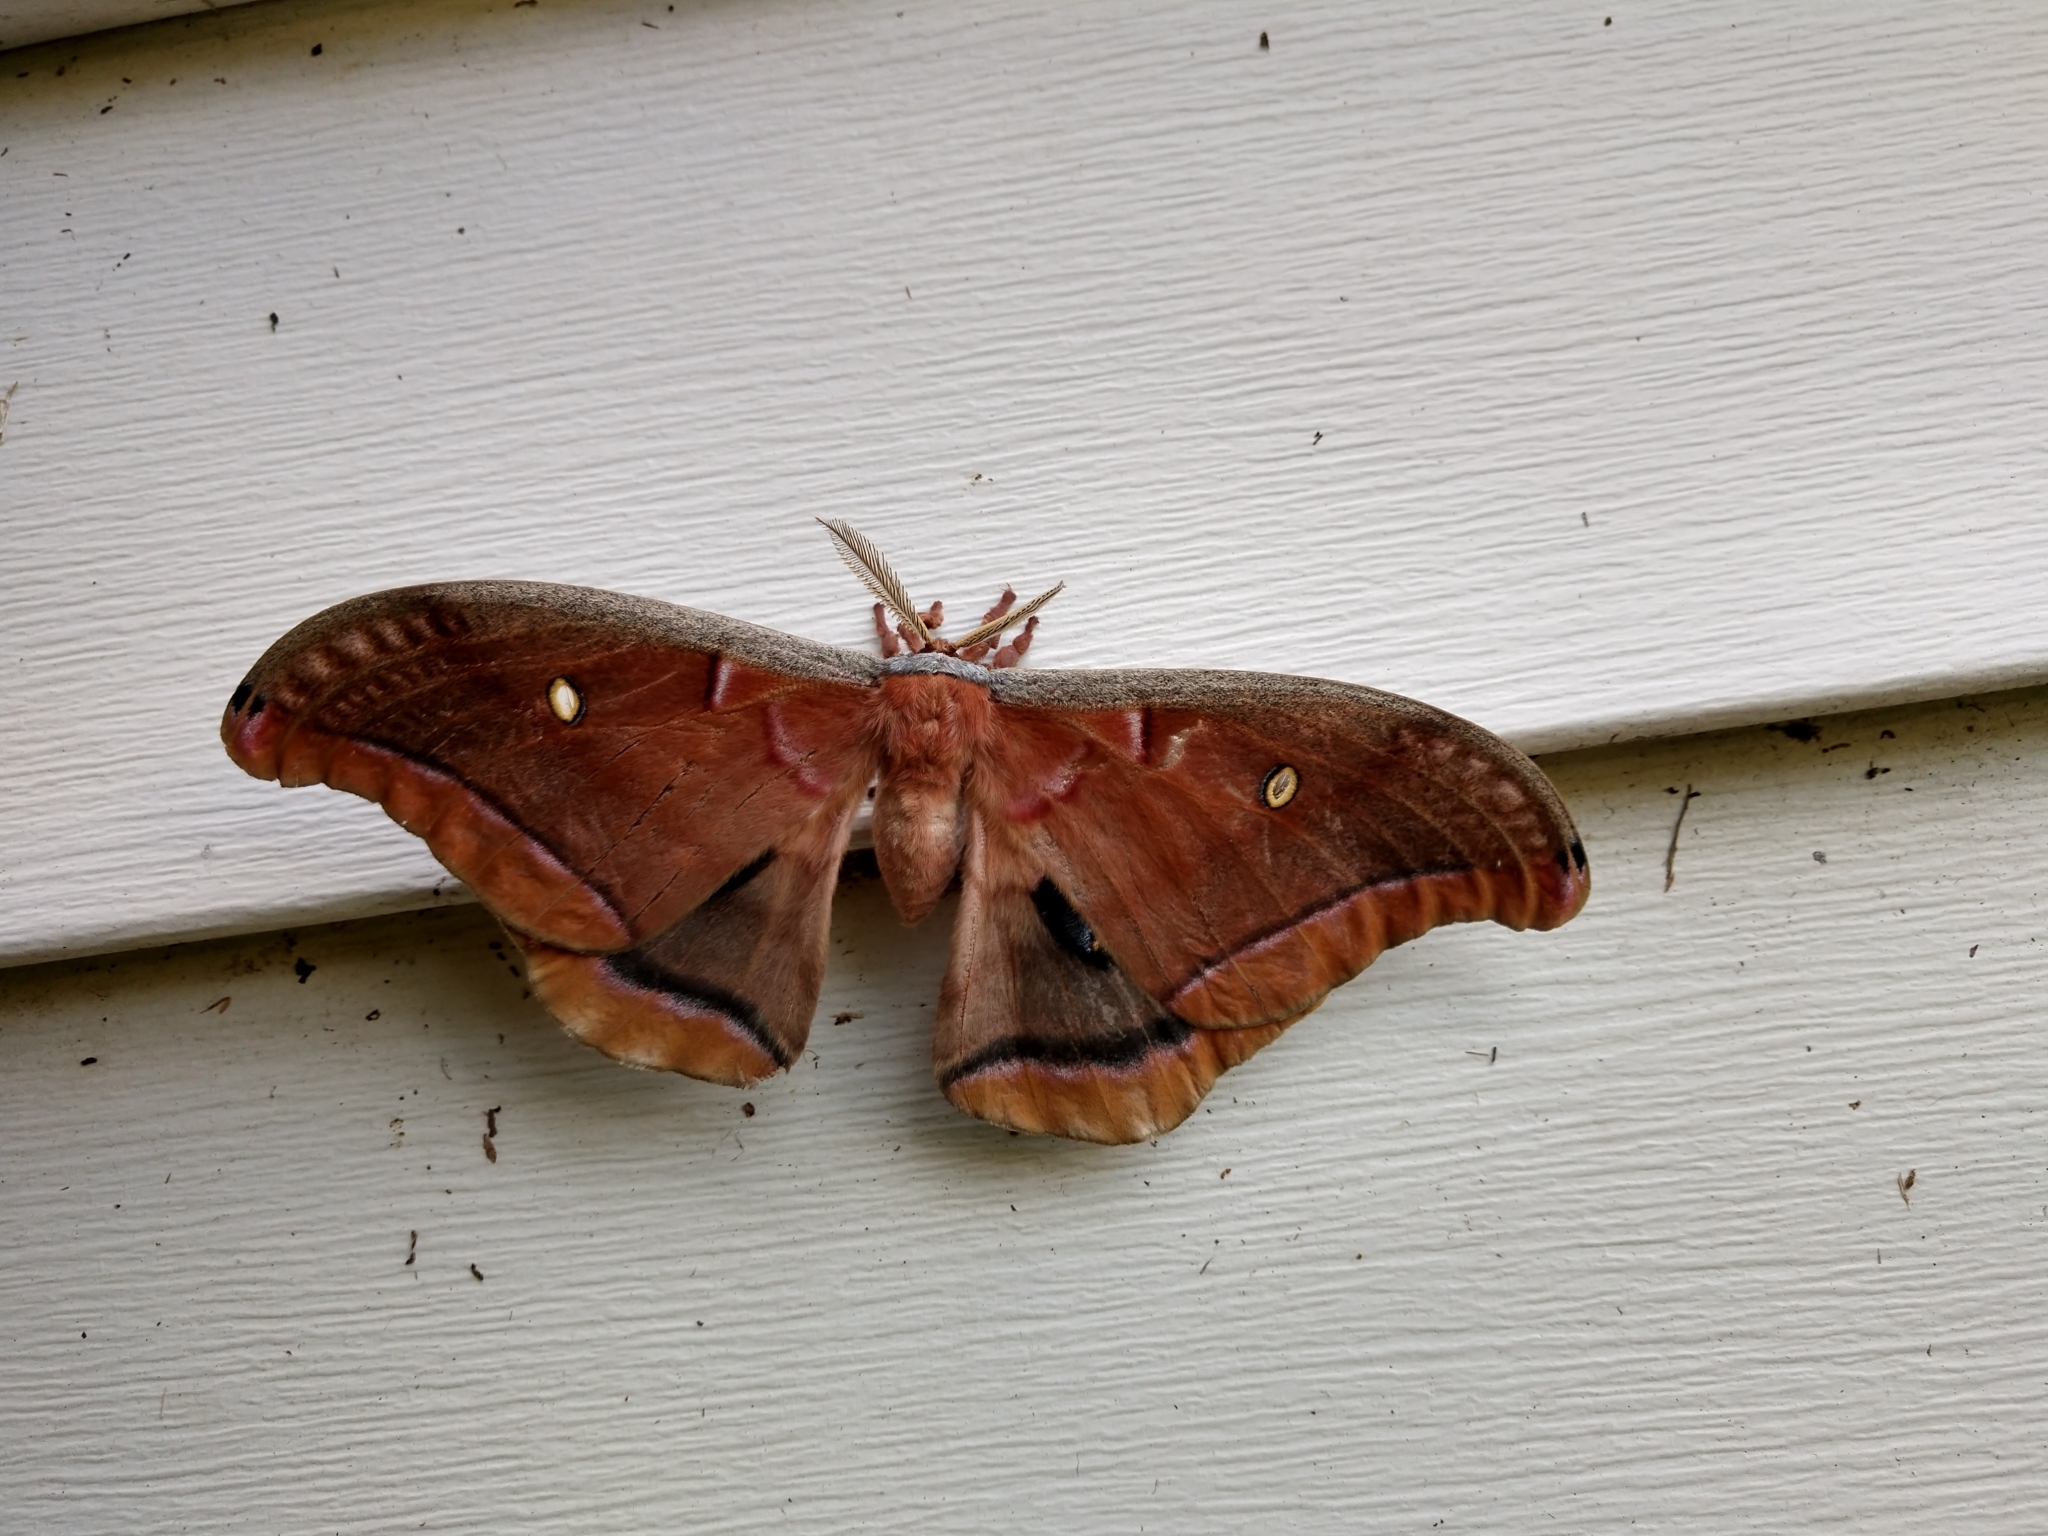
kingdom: Animalia
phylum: Arthropoda
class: Insecta
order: Lepidoptera
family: Saturniidae
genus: Antheraea
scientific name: Antheraea polyphemus
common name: Polyphemus moth
